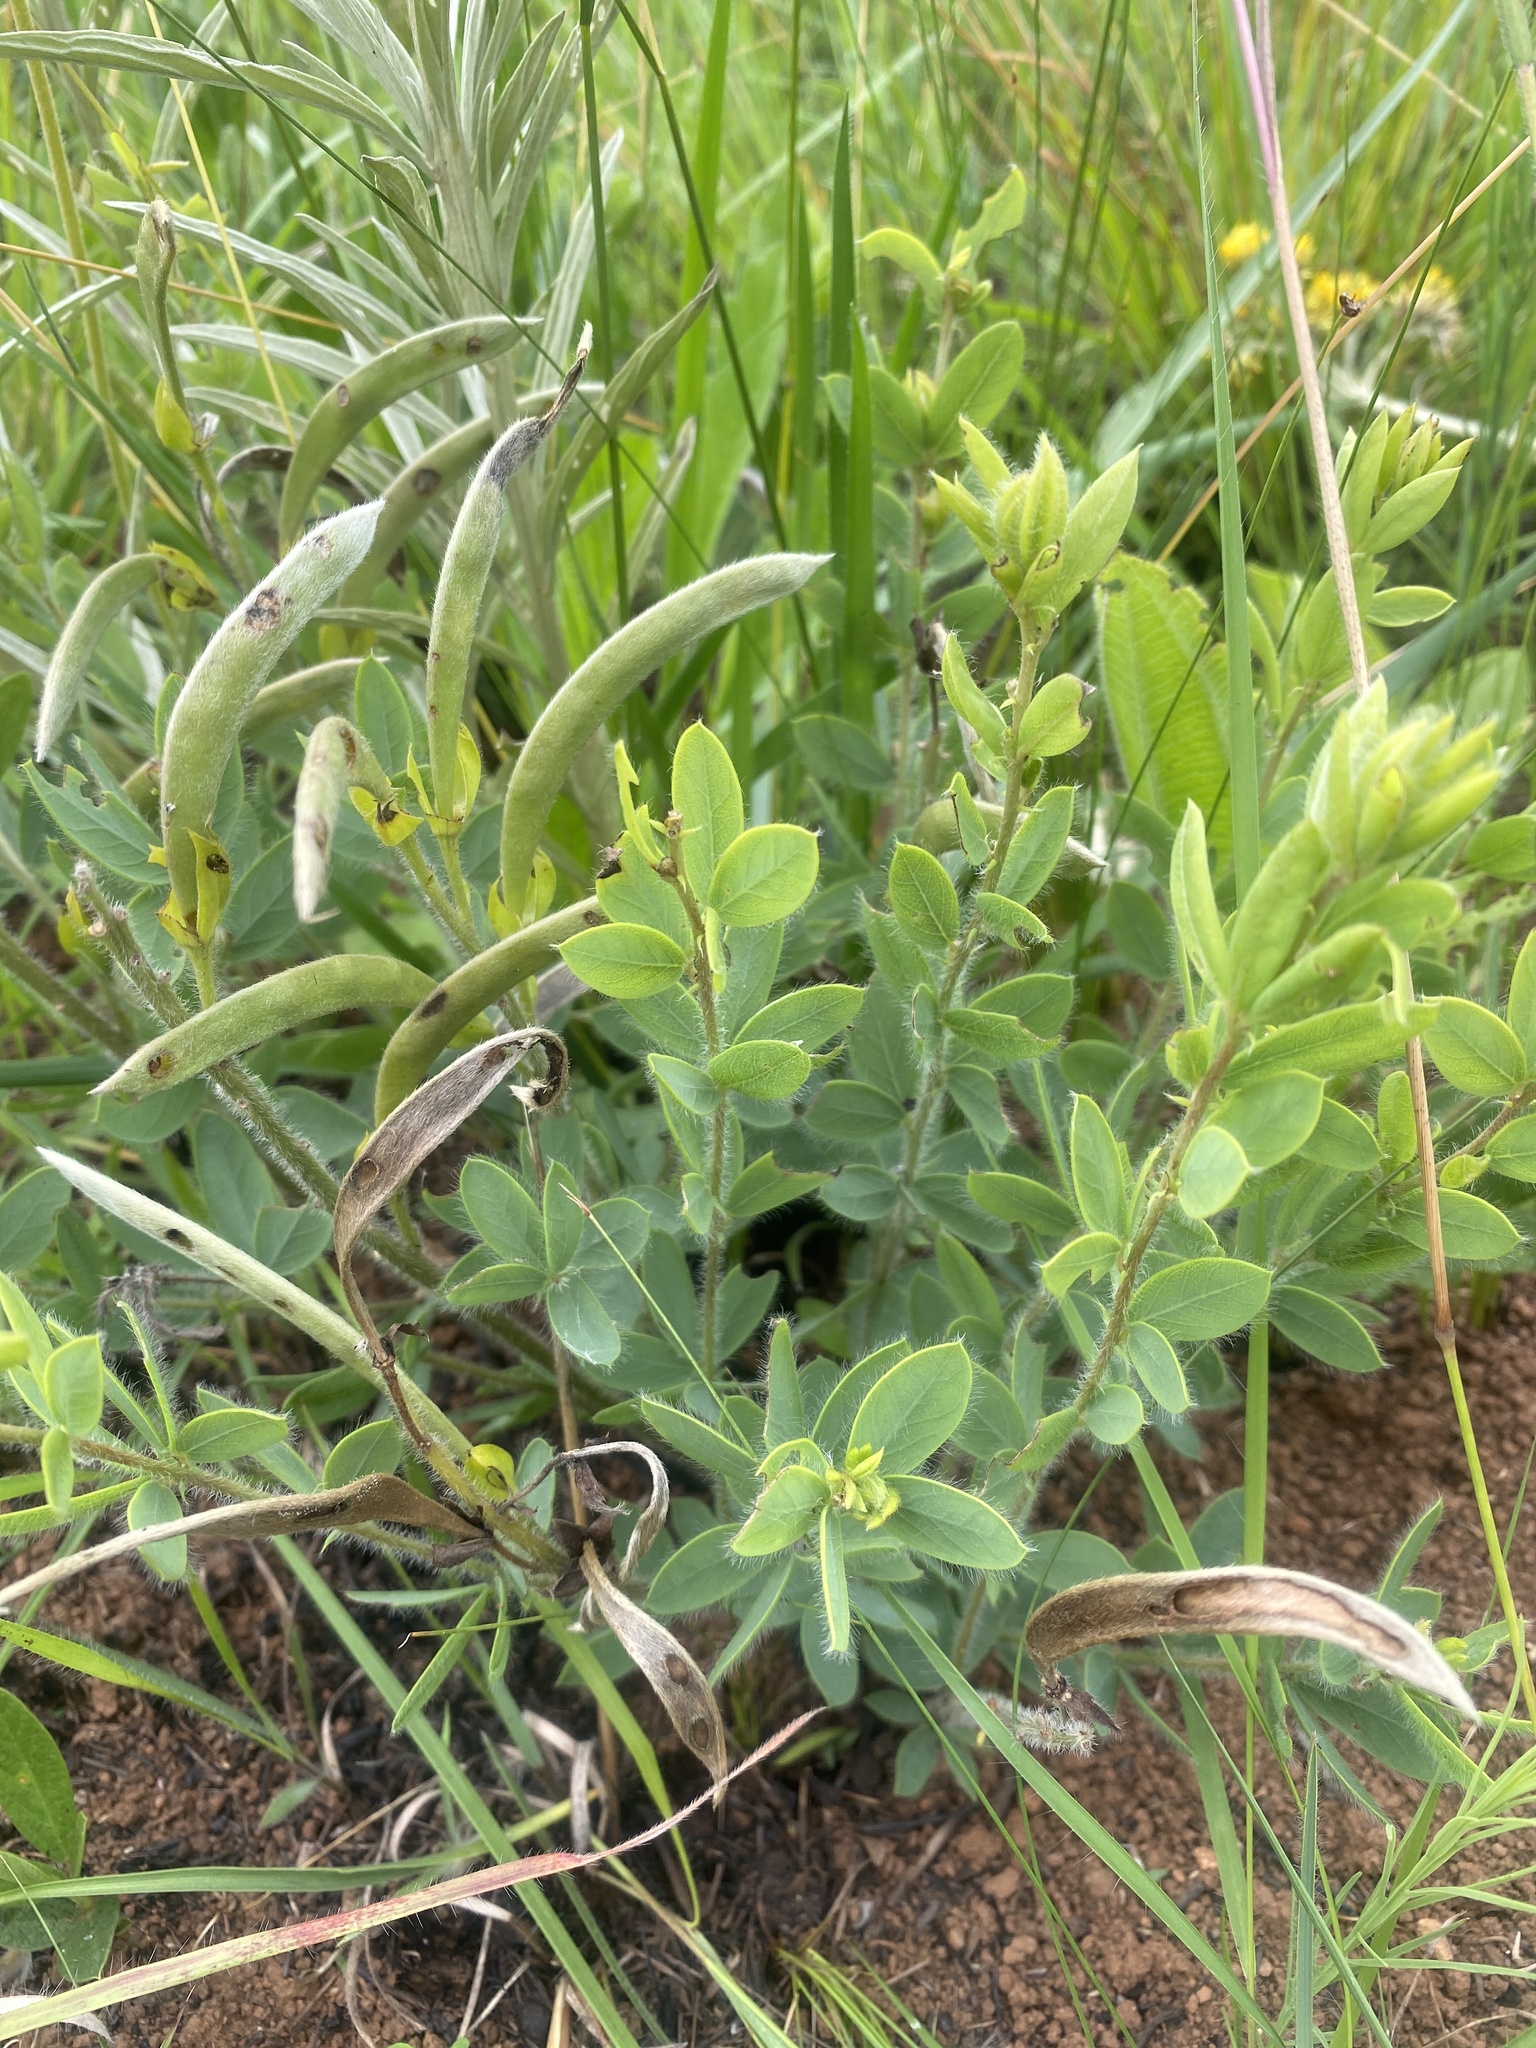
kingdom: Plantae
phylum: Tracheophyta
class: Magnoliopsida
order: Fabales
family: Fabaceae
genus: Argyrolobium
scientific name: Argyrolobium muddii
